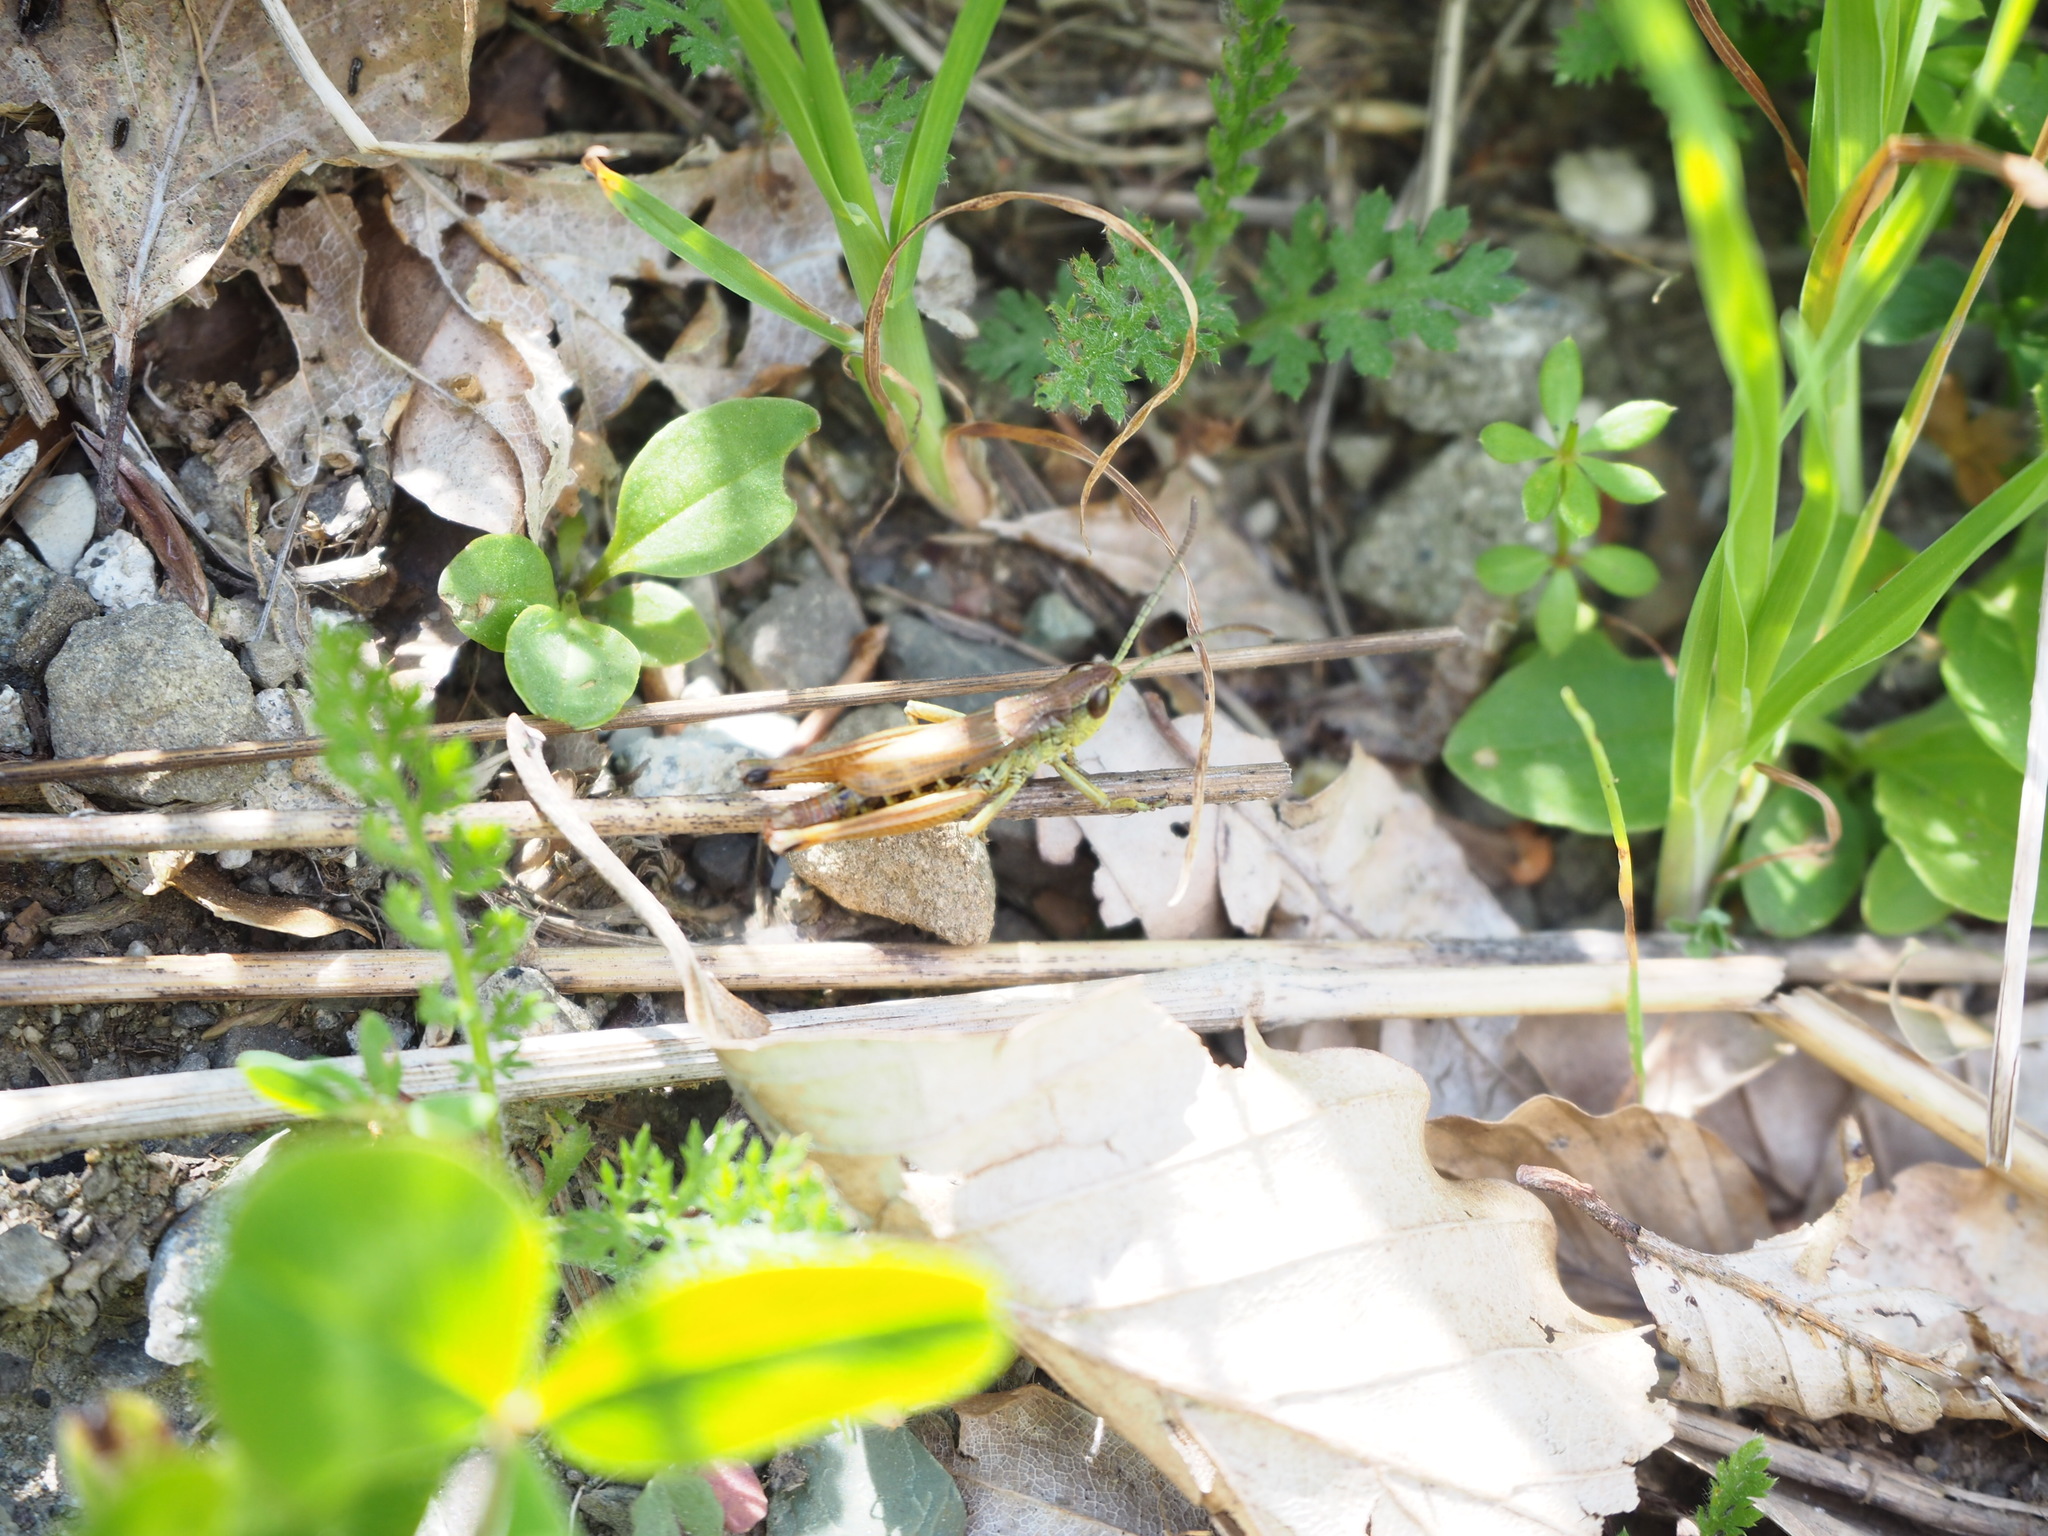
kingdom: Animalia
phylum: Arthropoda
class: Insecta
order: Orthoptera
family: Acrididae
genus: Pseudochorthippus
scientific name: Pseudochorthippus parallelus
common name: Meadow grasshopper
